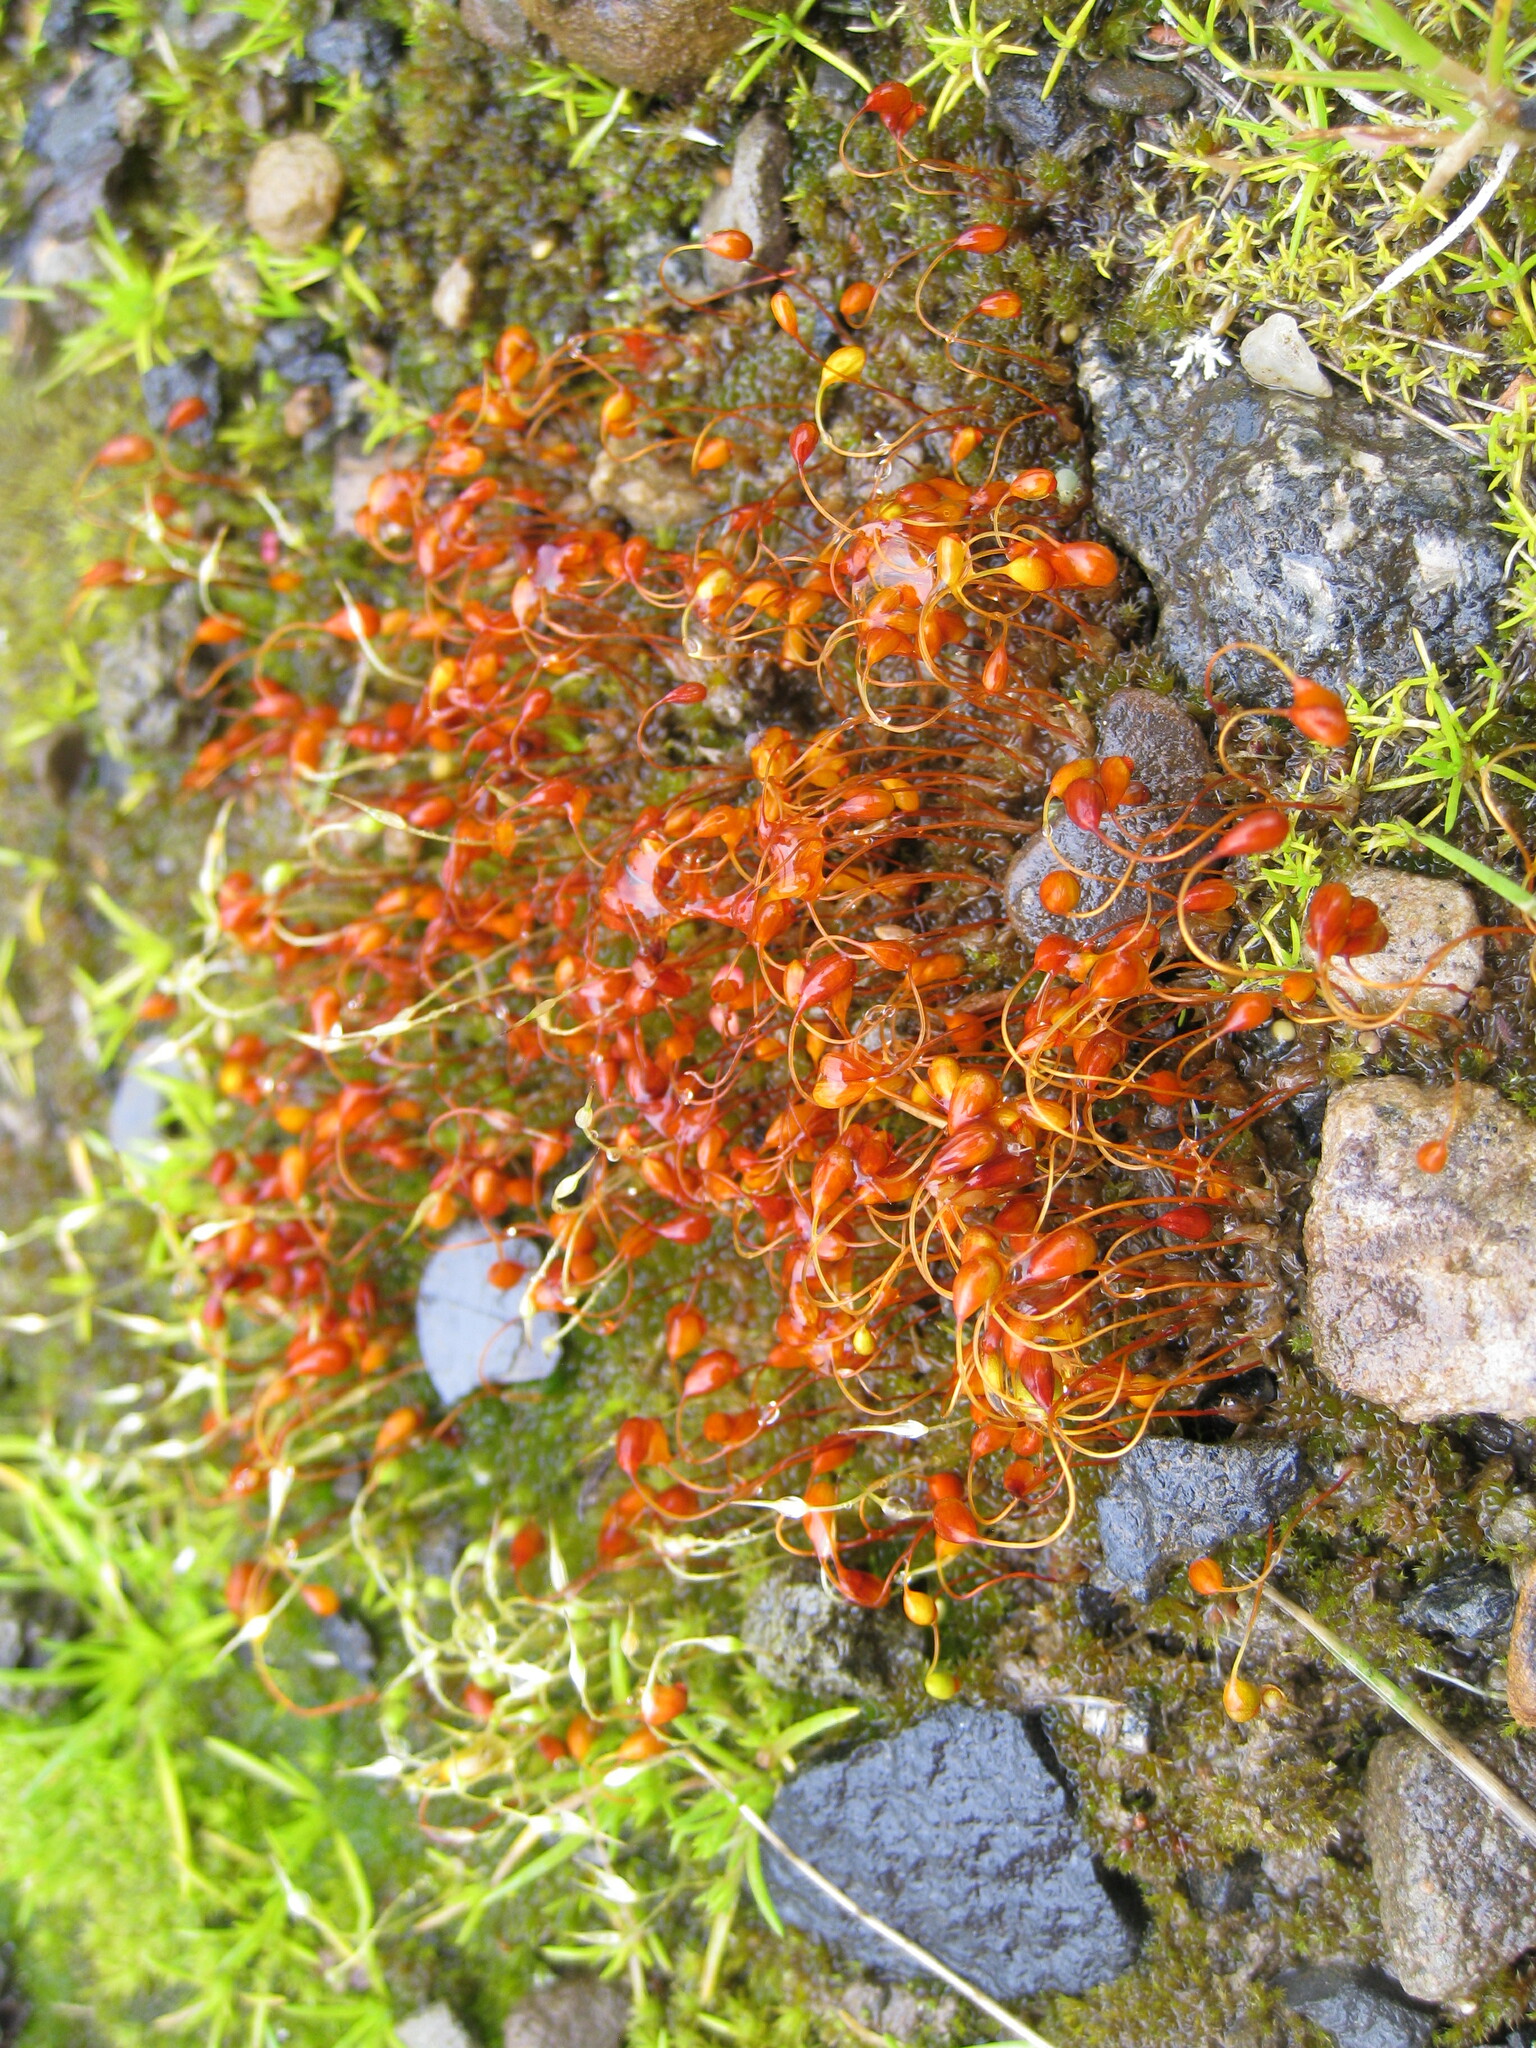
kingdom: Plantae
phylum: Bryophyta
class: Bryopsida
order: Funariales
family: Funariaceae
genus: Funaria
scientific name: Funaria hygrometrica
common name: Common cord moss
